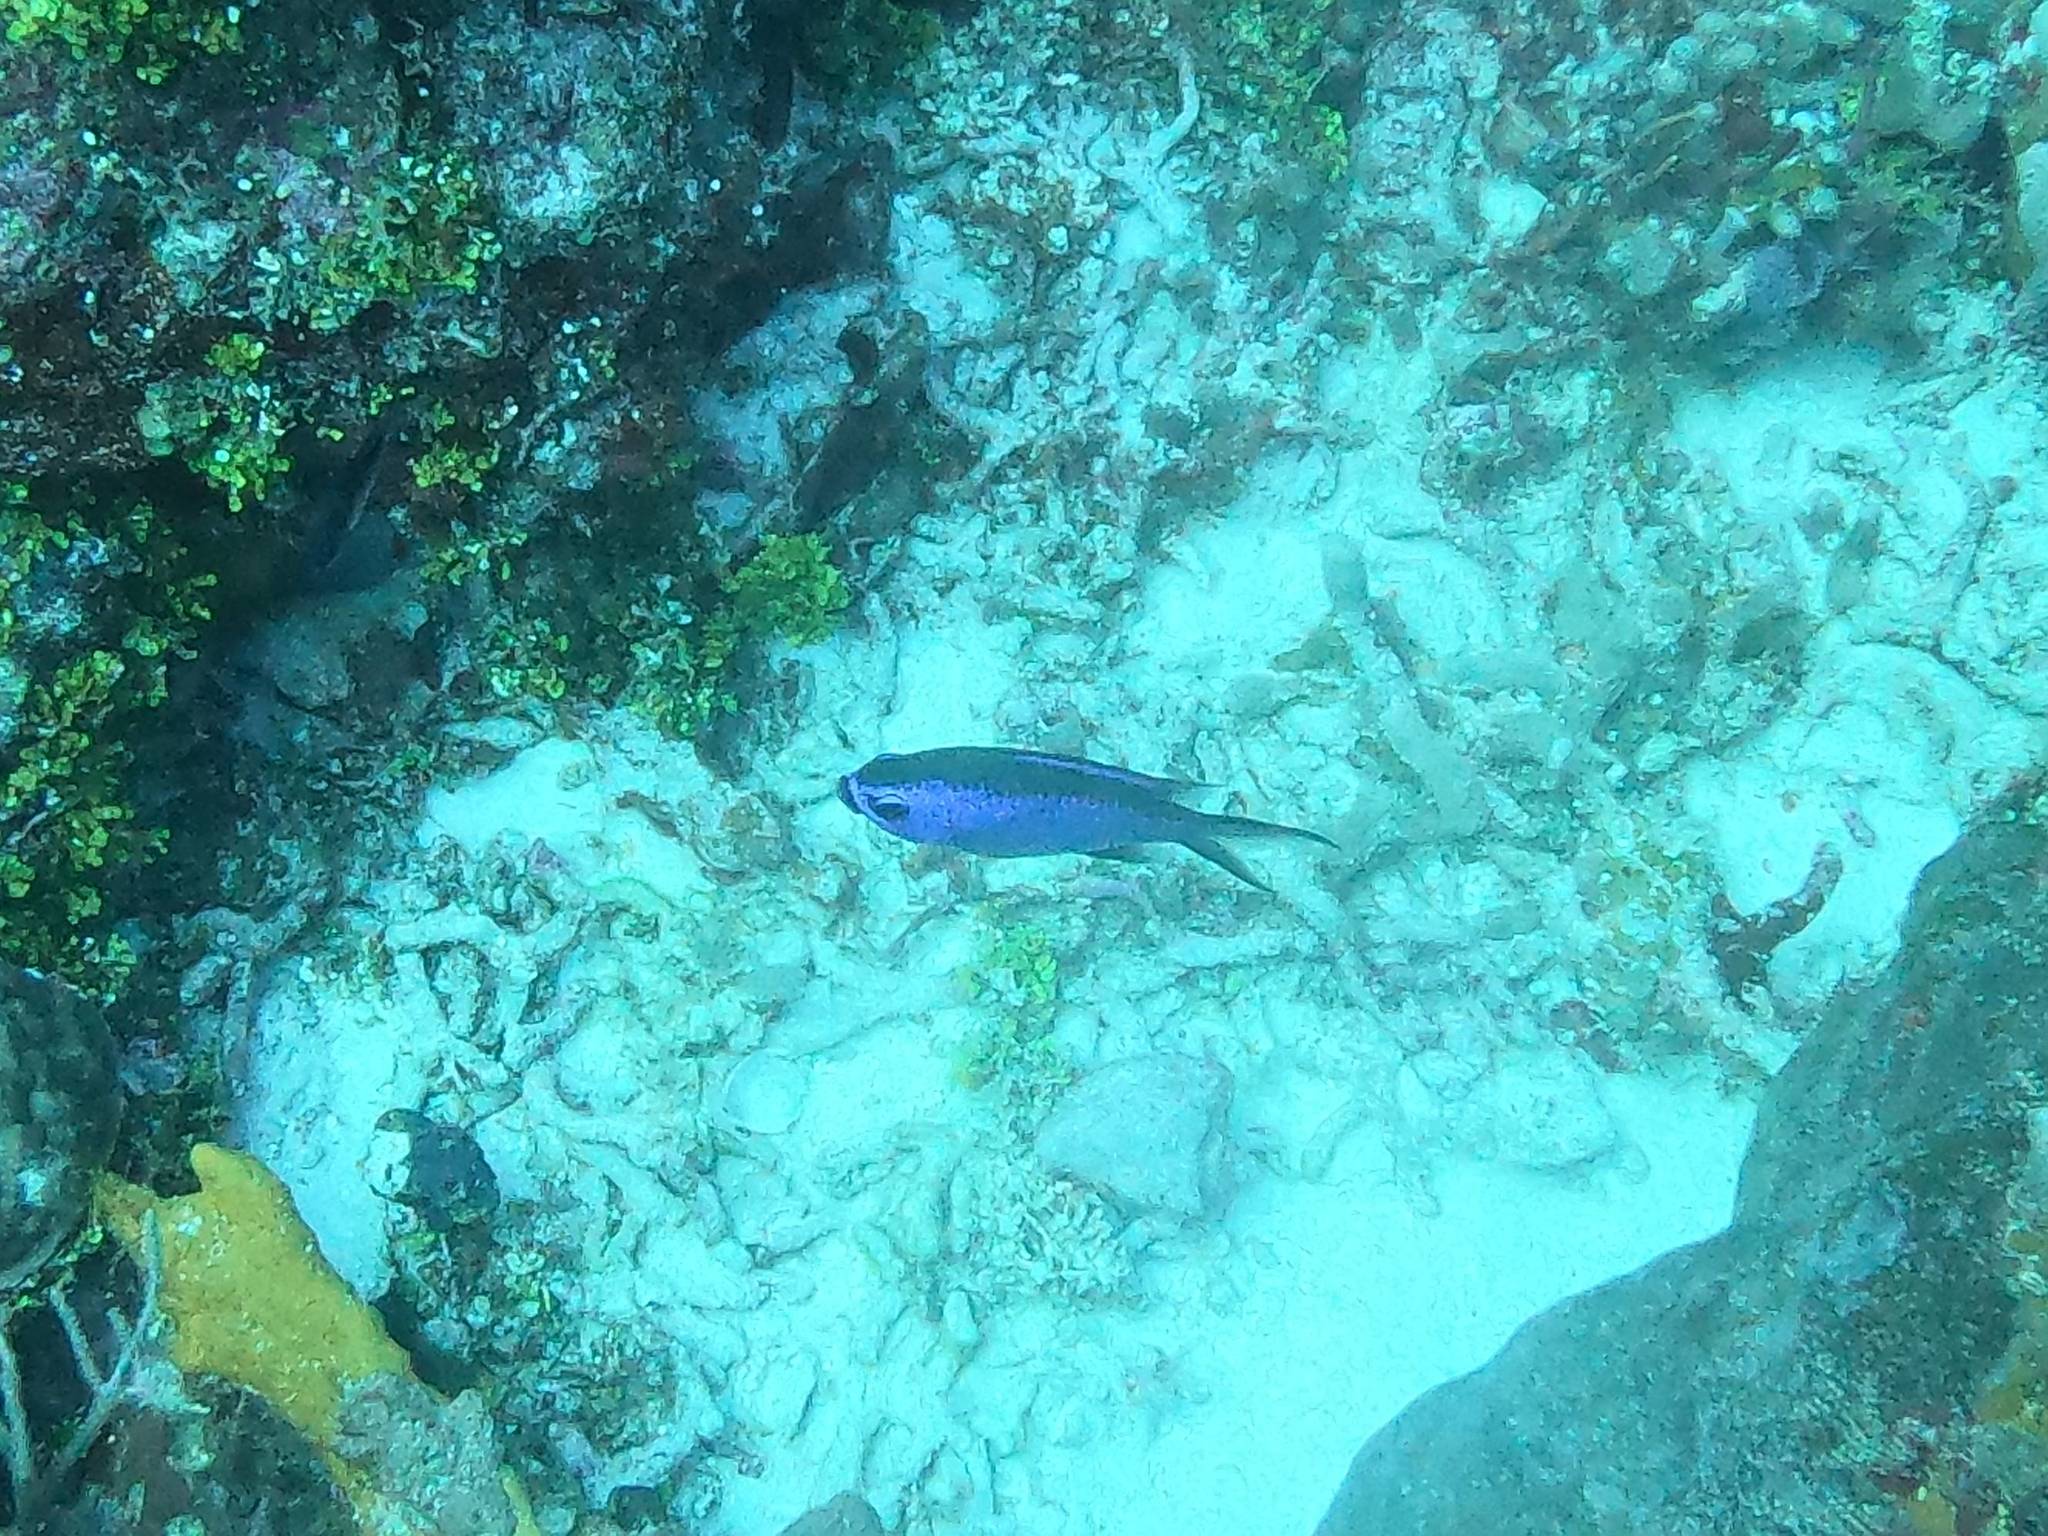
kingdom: Animalia
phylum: Chordata
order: Perciformes
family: Pomacentridae
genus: Chromis
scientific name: Chromis cyanea
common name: Blue chromis
